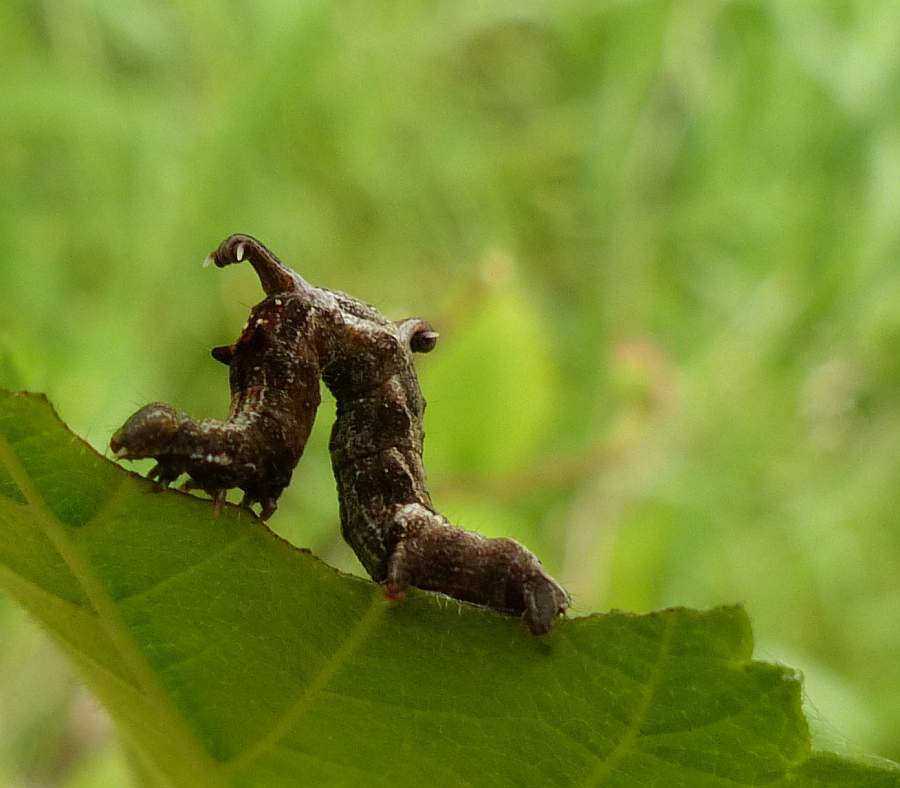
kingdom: Animalia
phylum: Arthropoda
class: Insecta
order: Lepidoptera
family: Geometridae
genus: Nematocampa
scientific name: Nematocampa resistaria
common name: Horned spanworm moth
